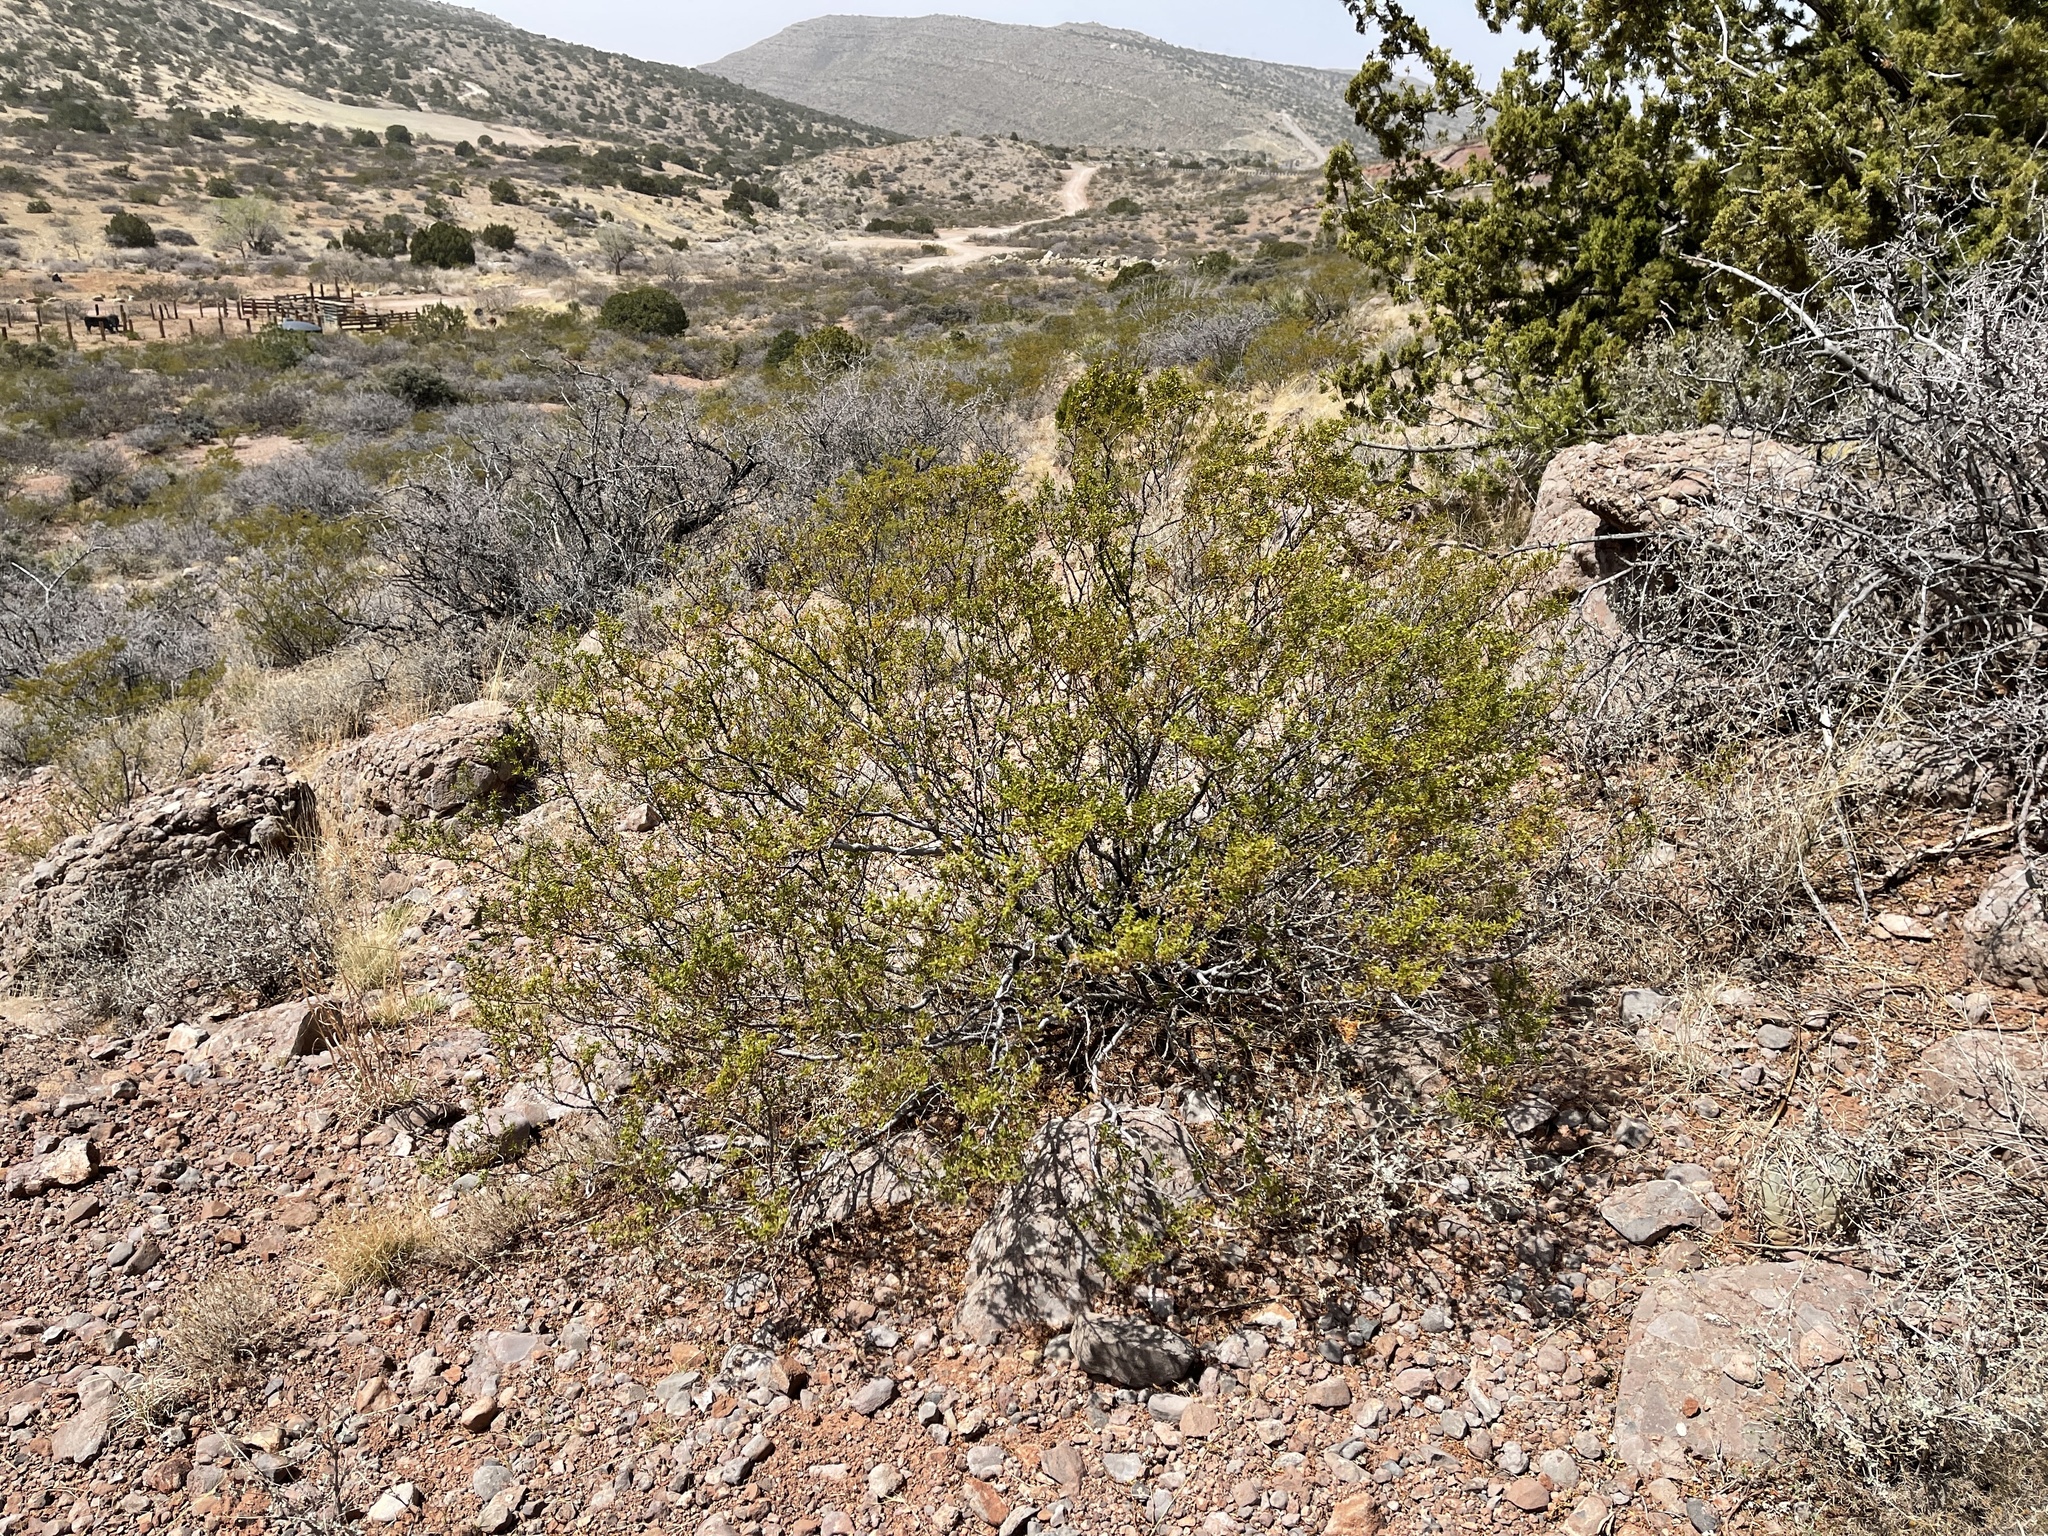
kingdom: Plantae
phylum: Tracheophyta
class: Magnoliopsida
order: Zygophyllales
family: Zygophyllaceae
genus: Larrea
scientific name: Larrea tridentata
